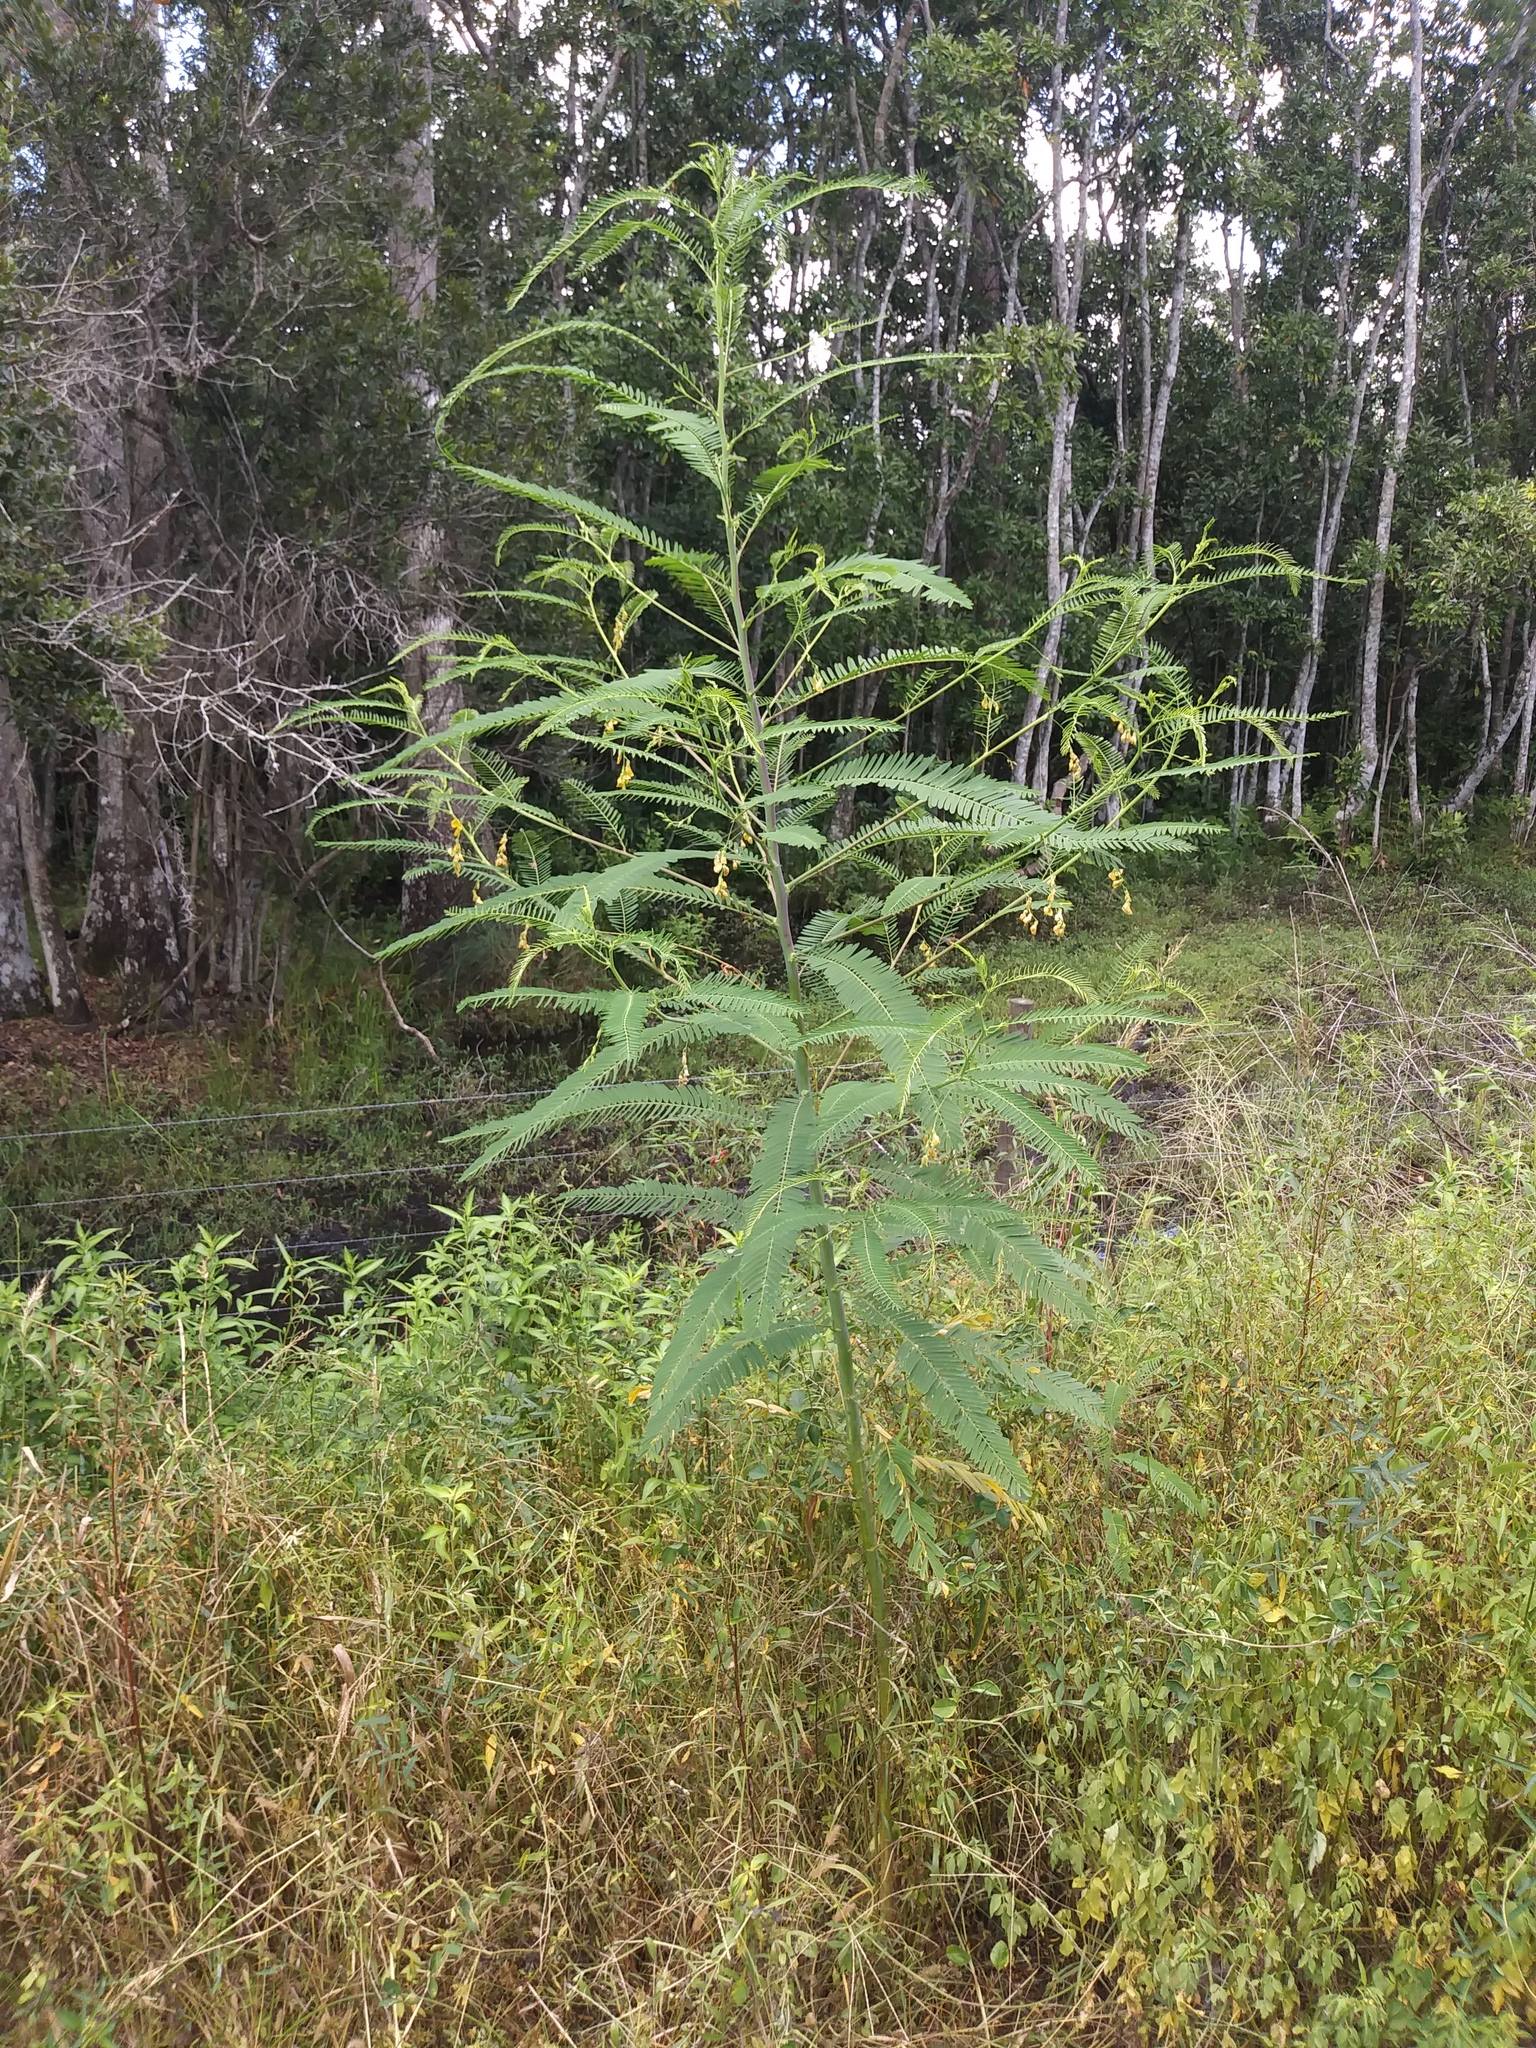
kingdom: Plantae
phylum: Tracheophyta
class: Magnoliopsida
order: Fabales
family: Fabaceae
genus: Sesbania
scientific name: Sesbania herbacea
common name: Bigpod sesbania
